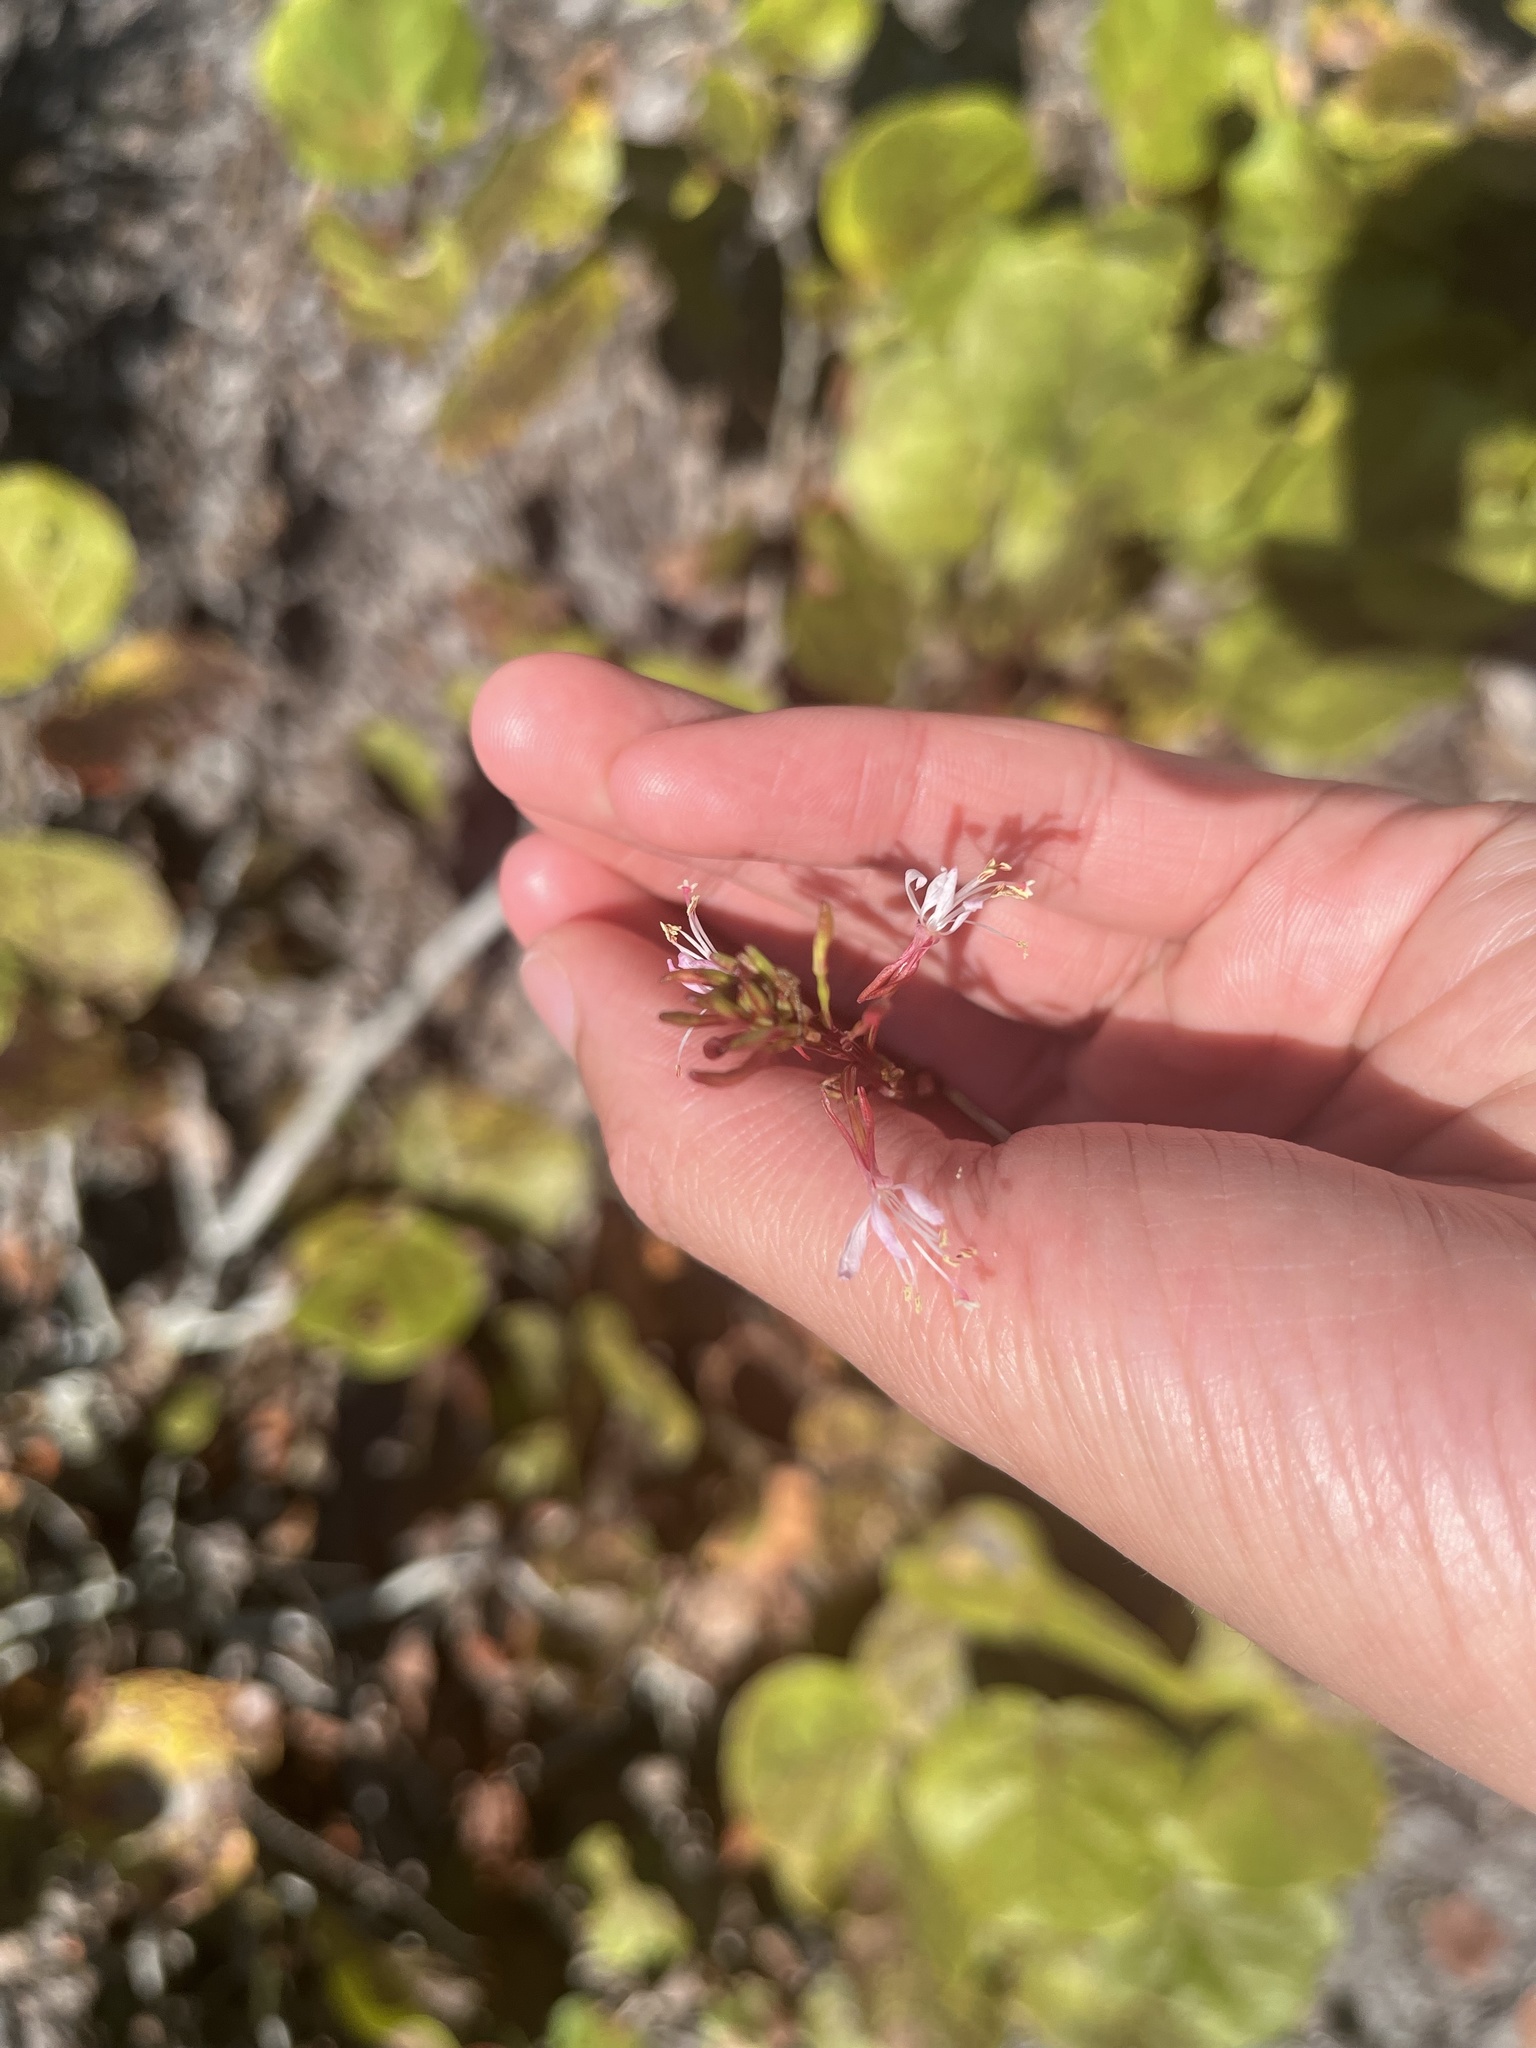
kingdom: Plantae
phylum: Tracheophyta
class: Magnoliopsida
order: Myrtales
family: Onagraceae
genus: Oenothera
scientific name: Oenothera simulans
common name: Southern beeblossom
